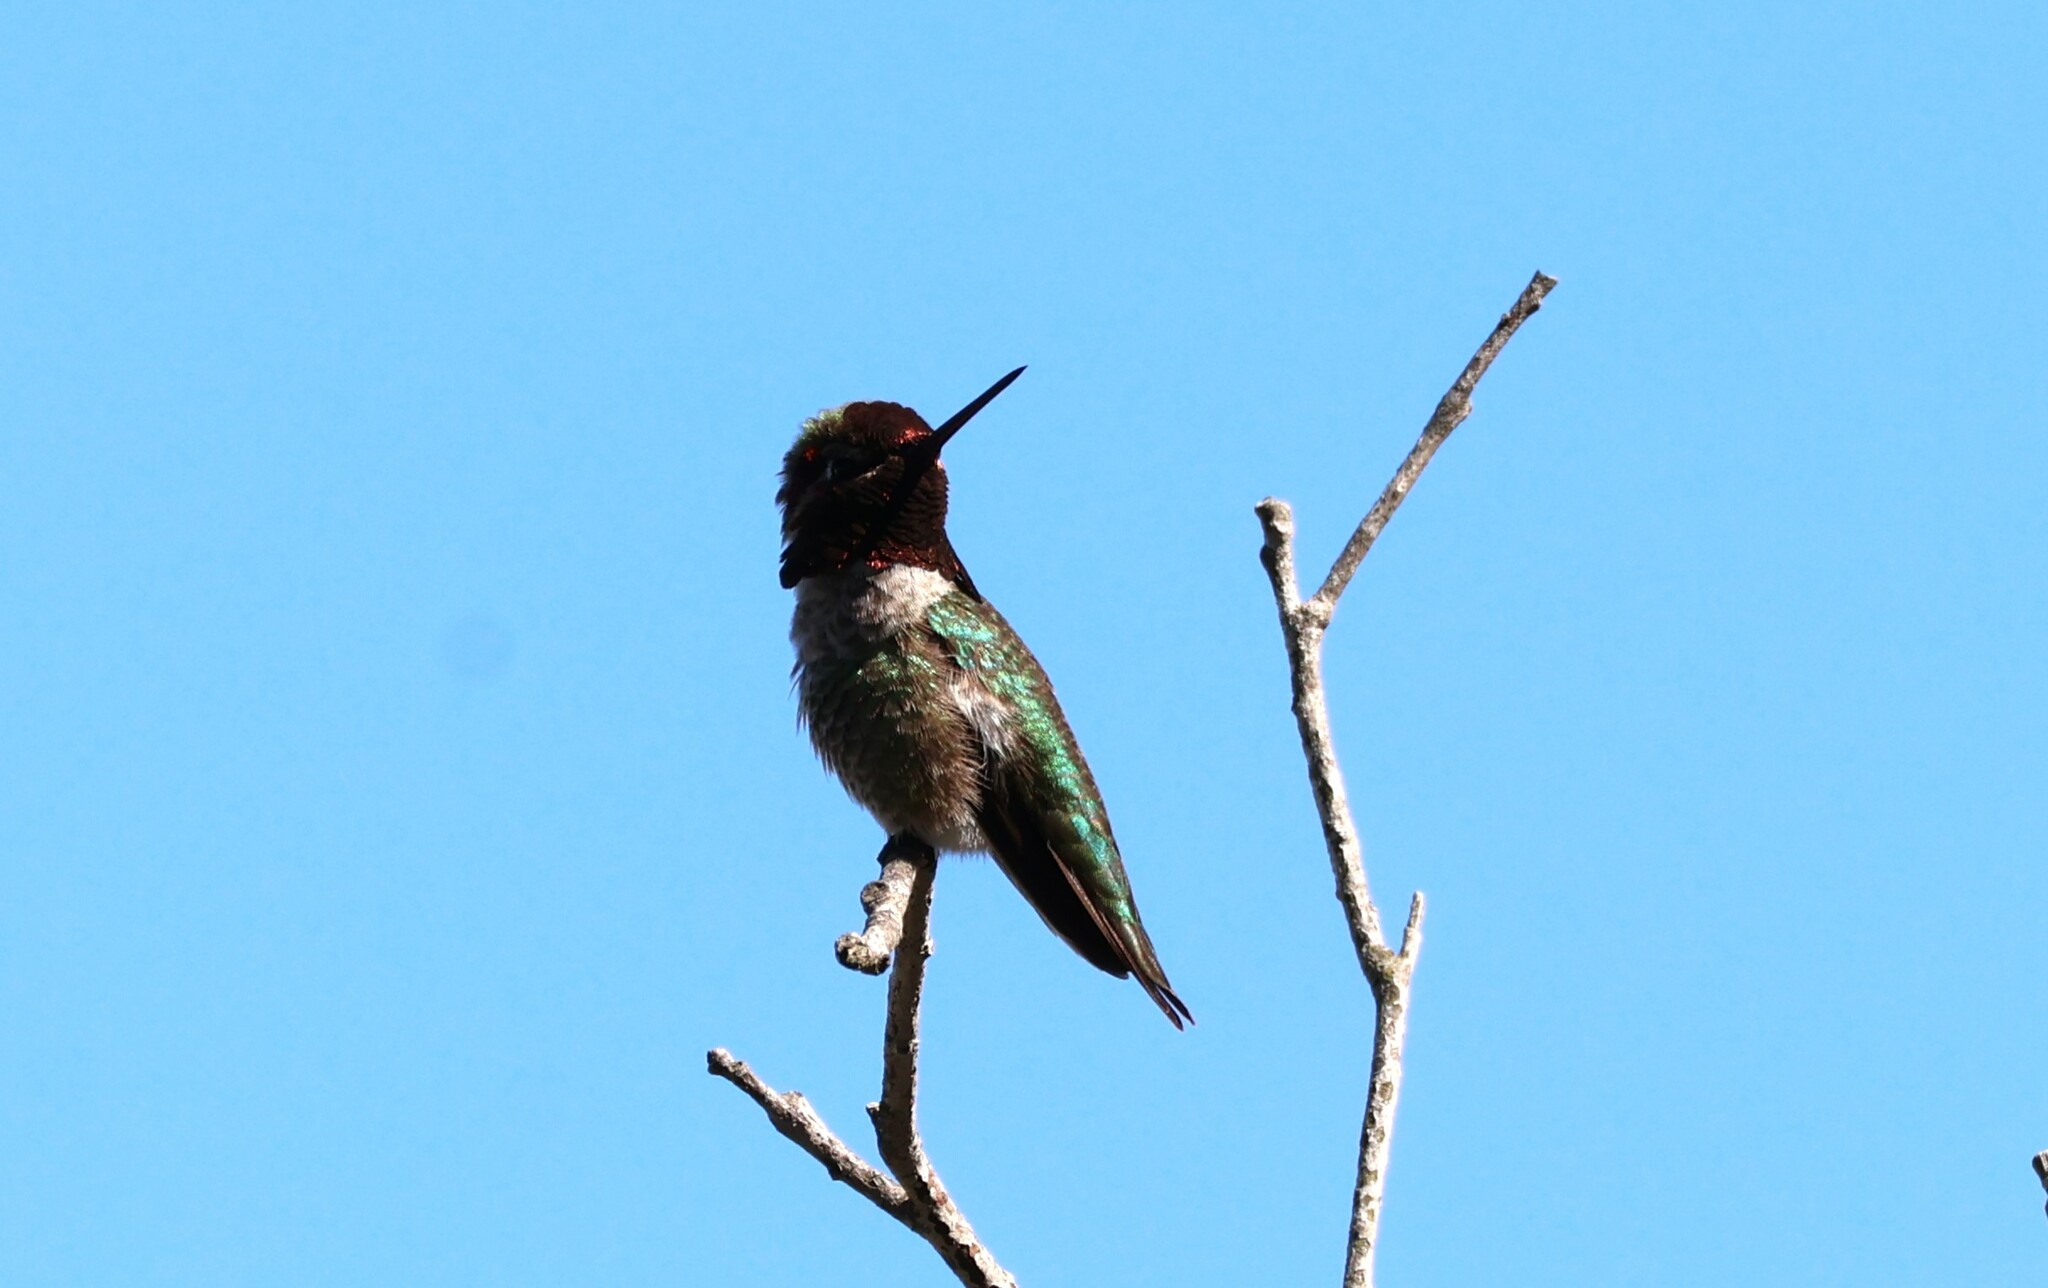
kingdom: Animalia
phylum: Chordata
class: Aves
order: Apodiformes
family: Trochilidae
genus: Calypte
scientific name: Calypte anna
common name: Anna's hummingbird
